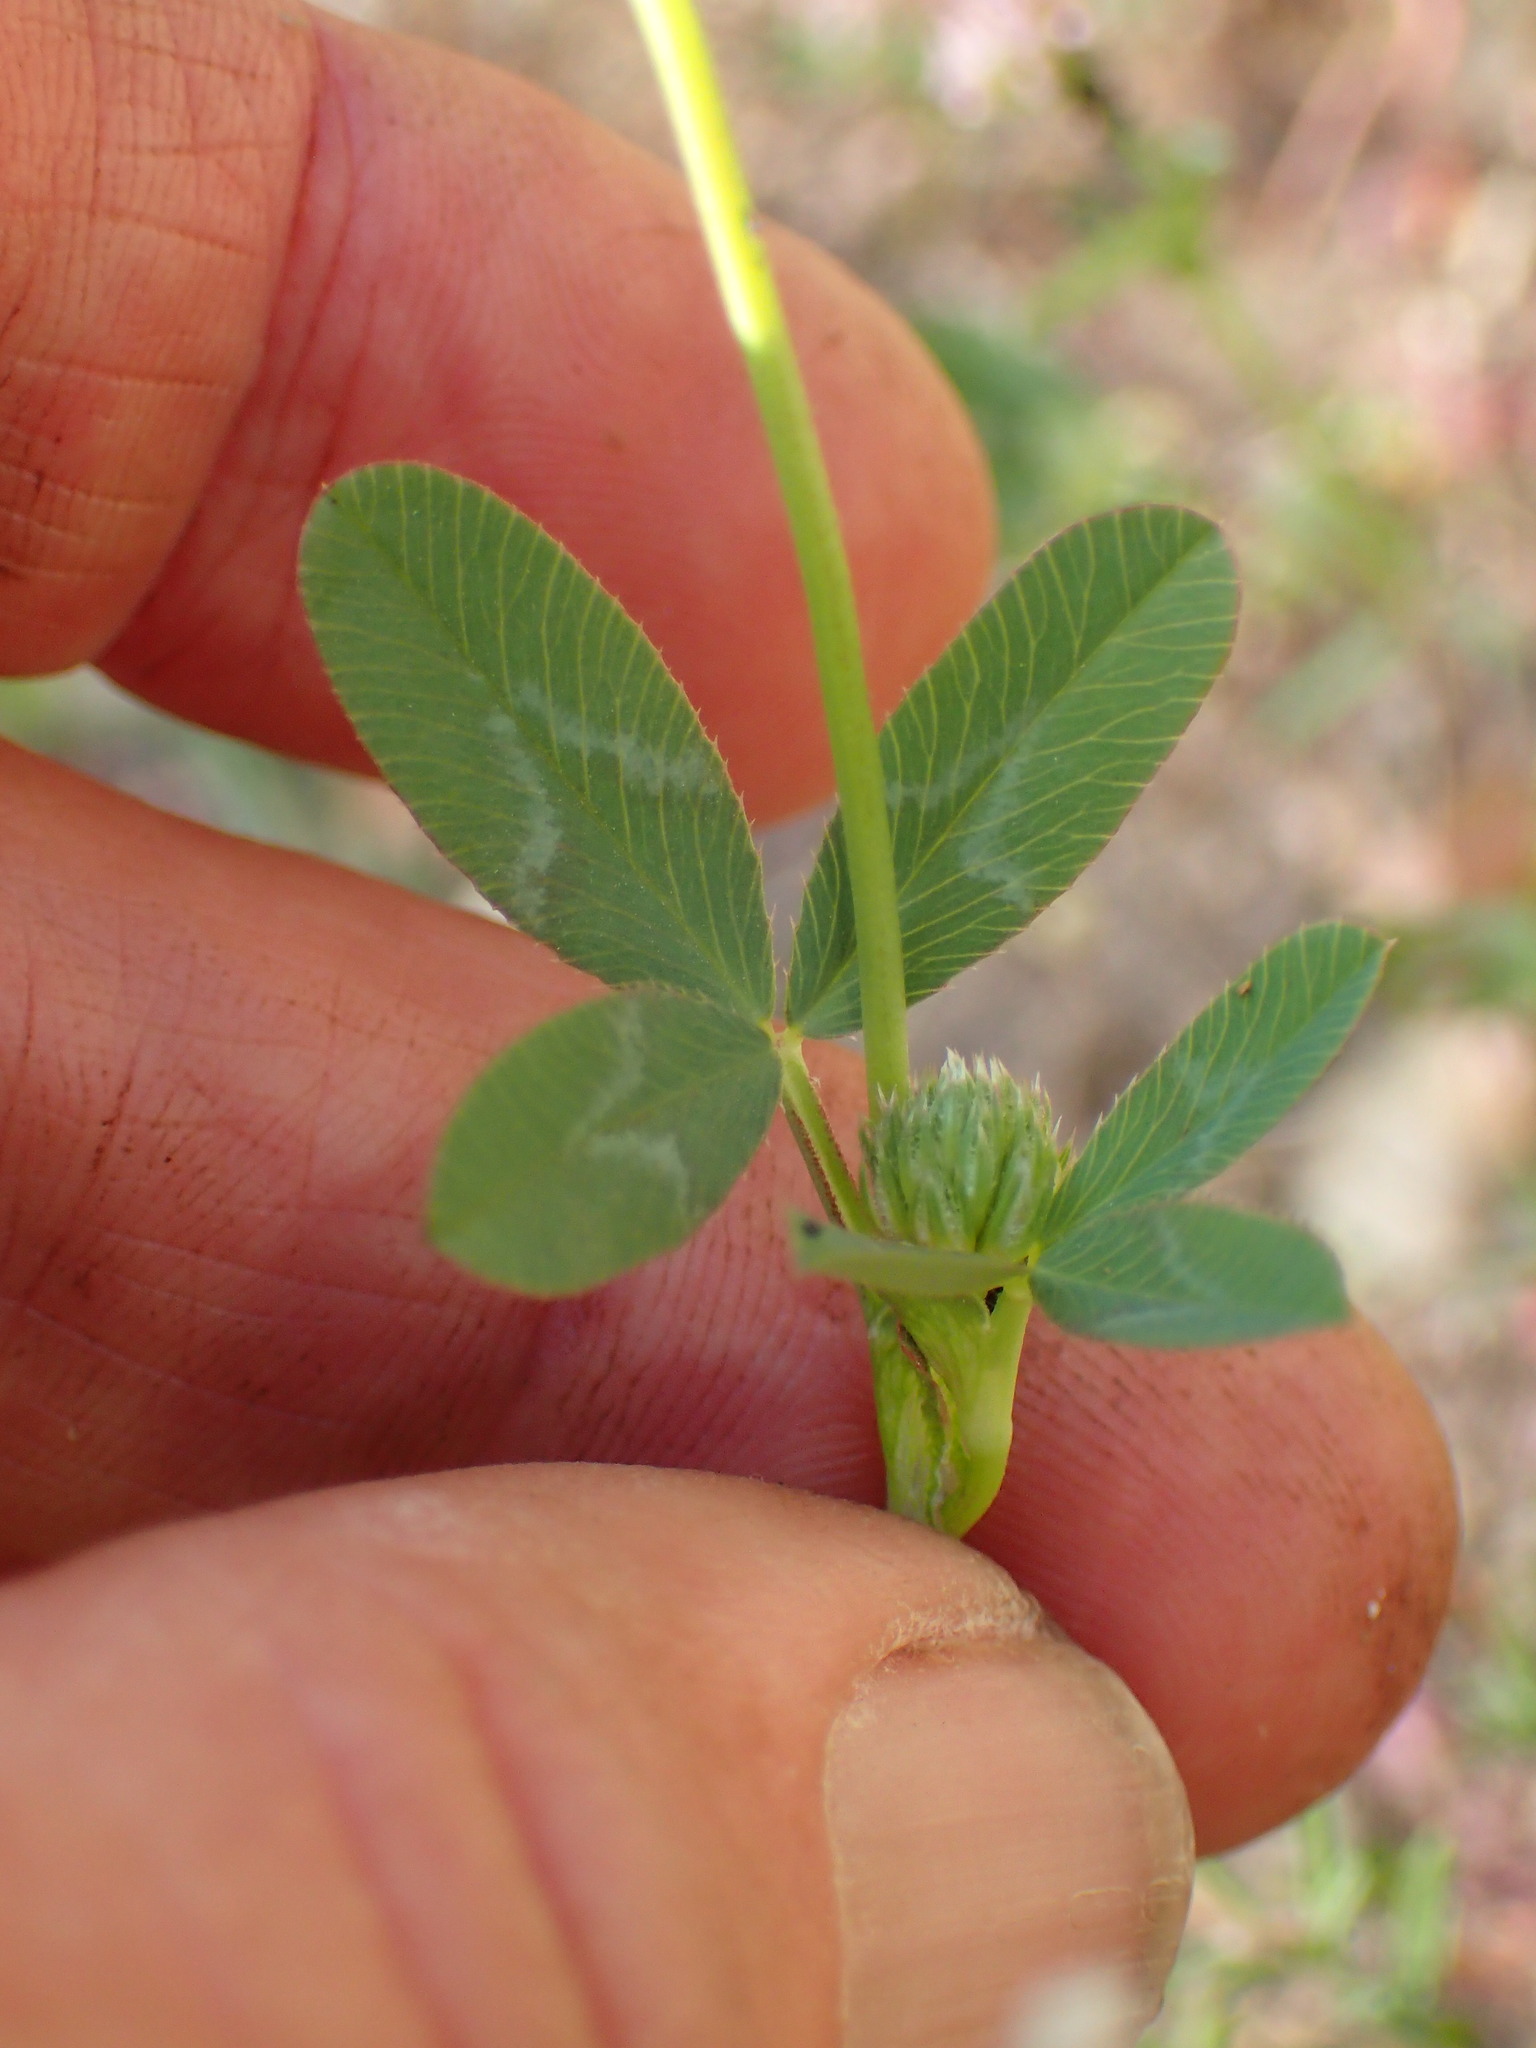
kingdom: Plantae
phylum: Tracheophyta
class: Magnoliopsida
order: Fabales
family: Fabaceae
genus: Trifolium
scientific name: Trifolium ciliolatum
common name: Foothill clover
